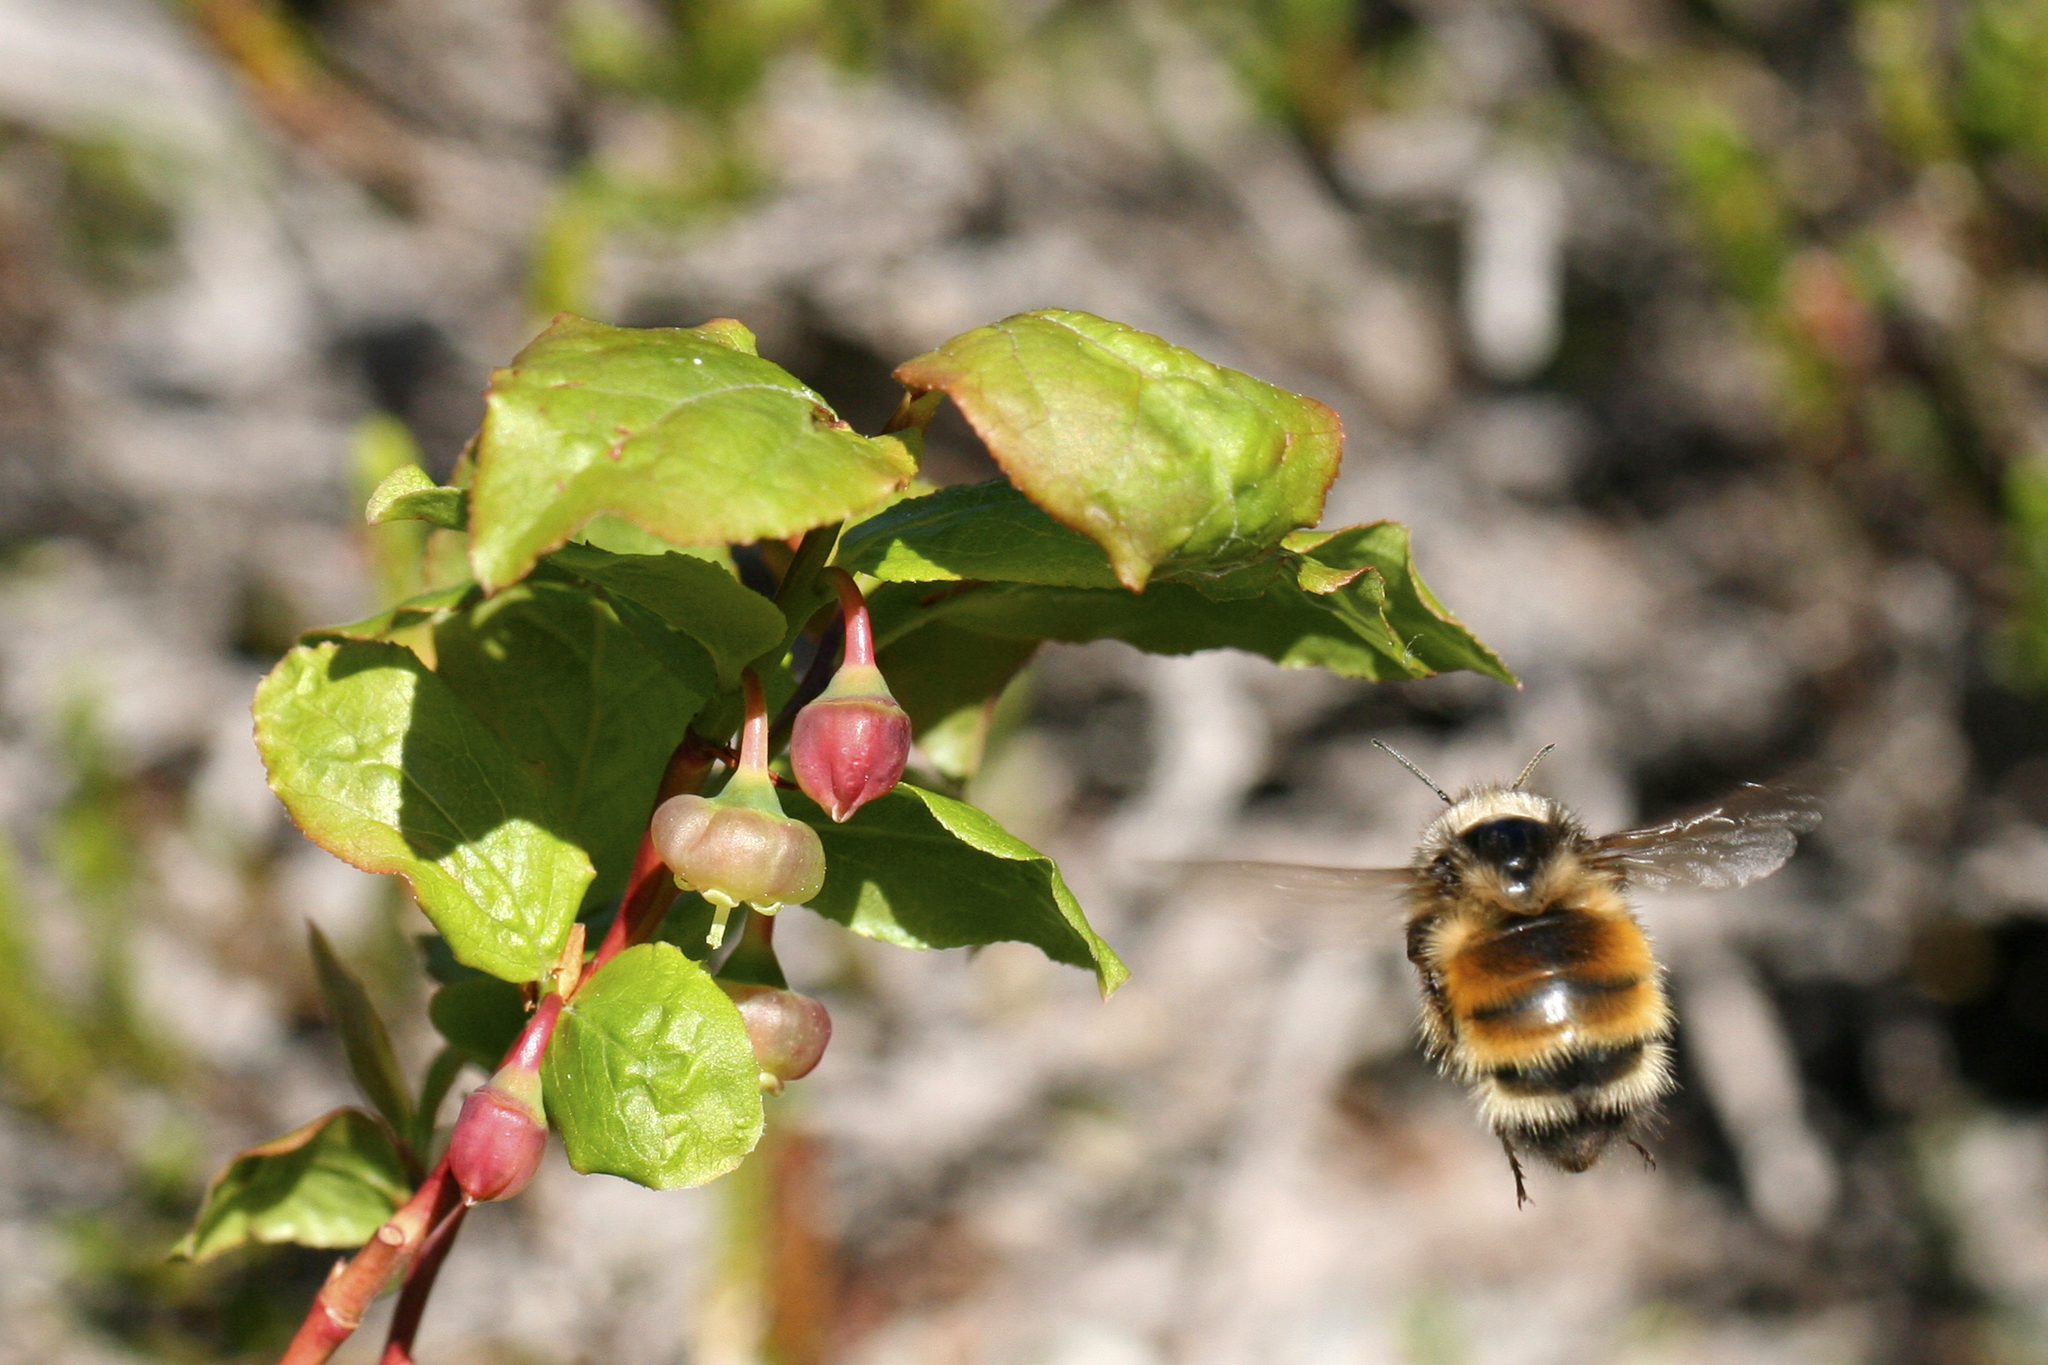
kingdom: Animalia
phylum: Arthropoda
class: Insecta
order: Hymenoptera
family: Apidae
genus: Bombus
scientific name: Bombus melanopygus
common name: Black tail bumble bee
